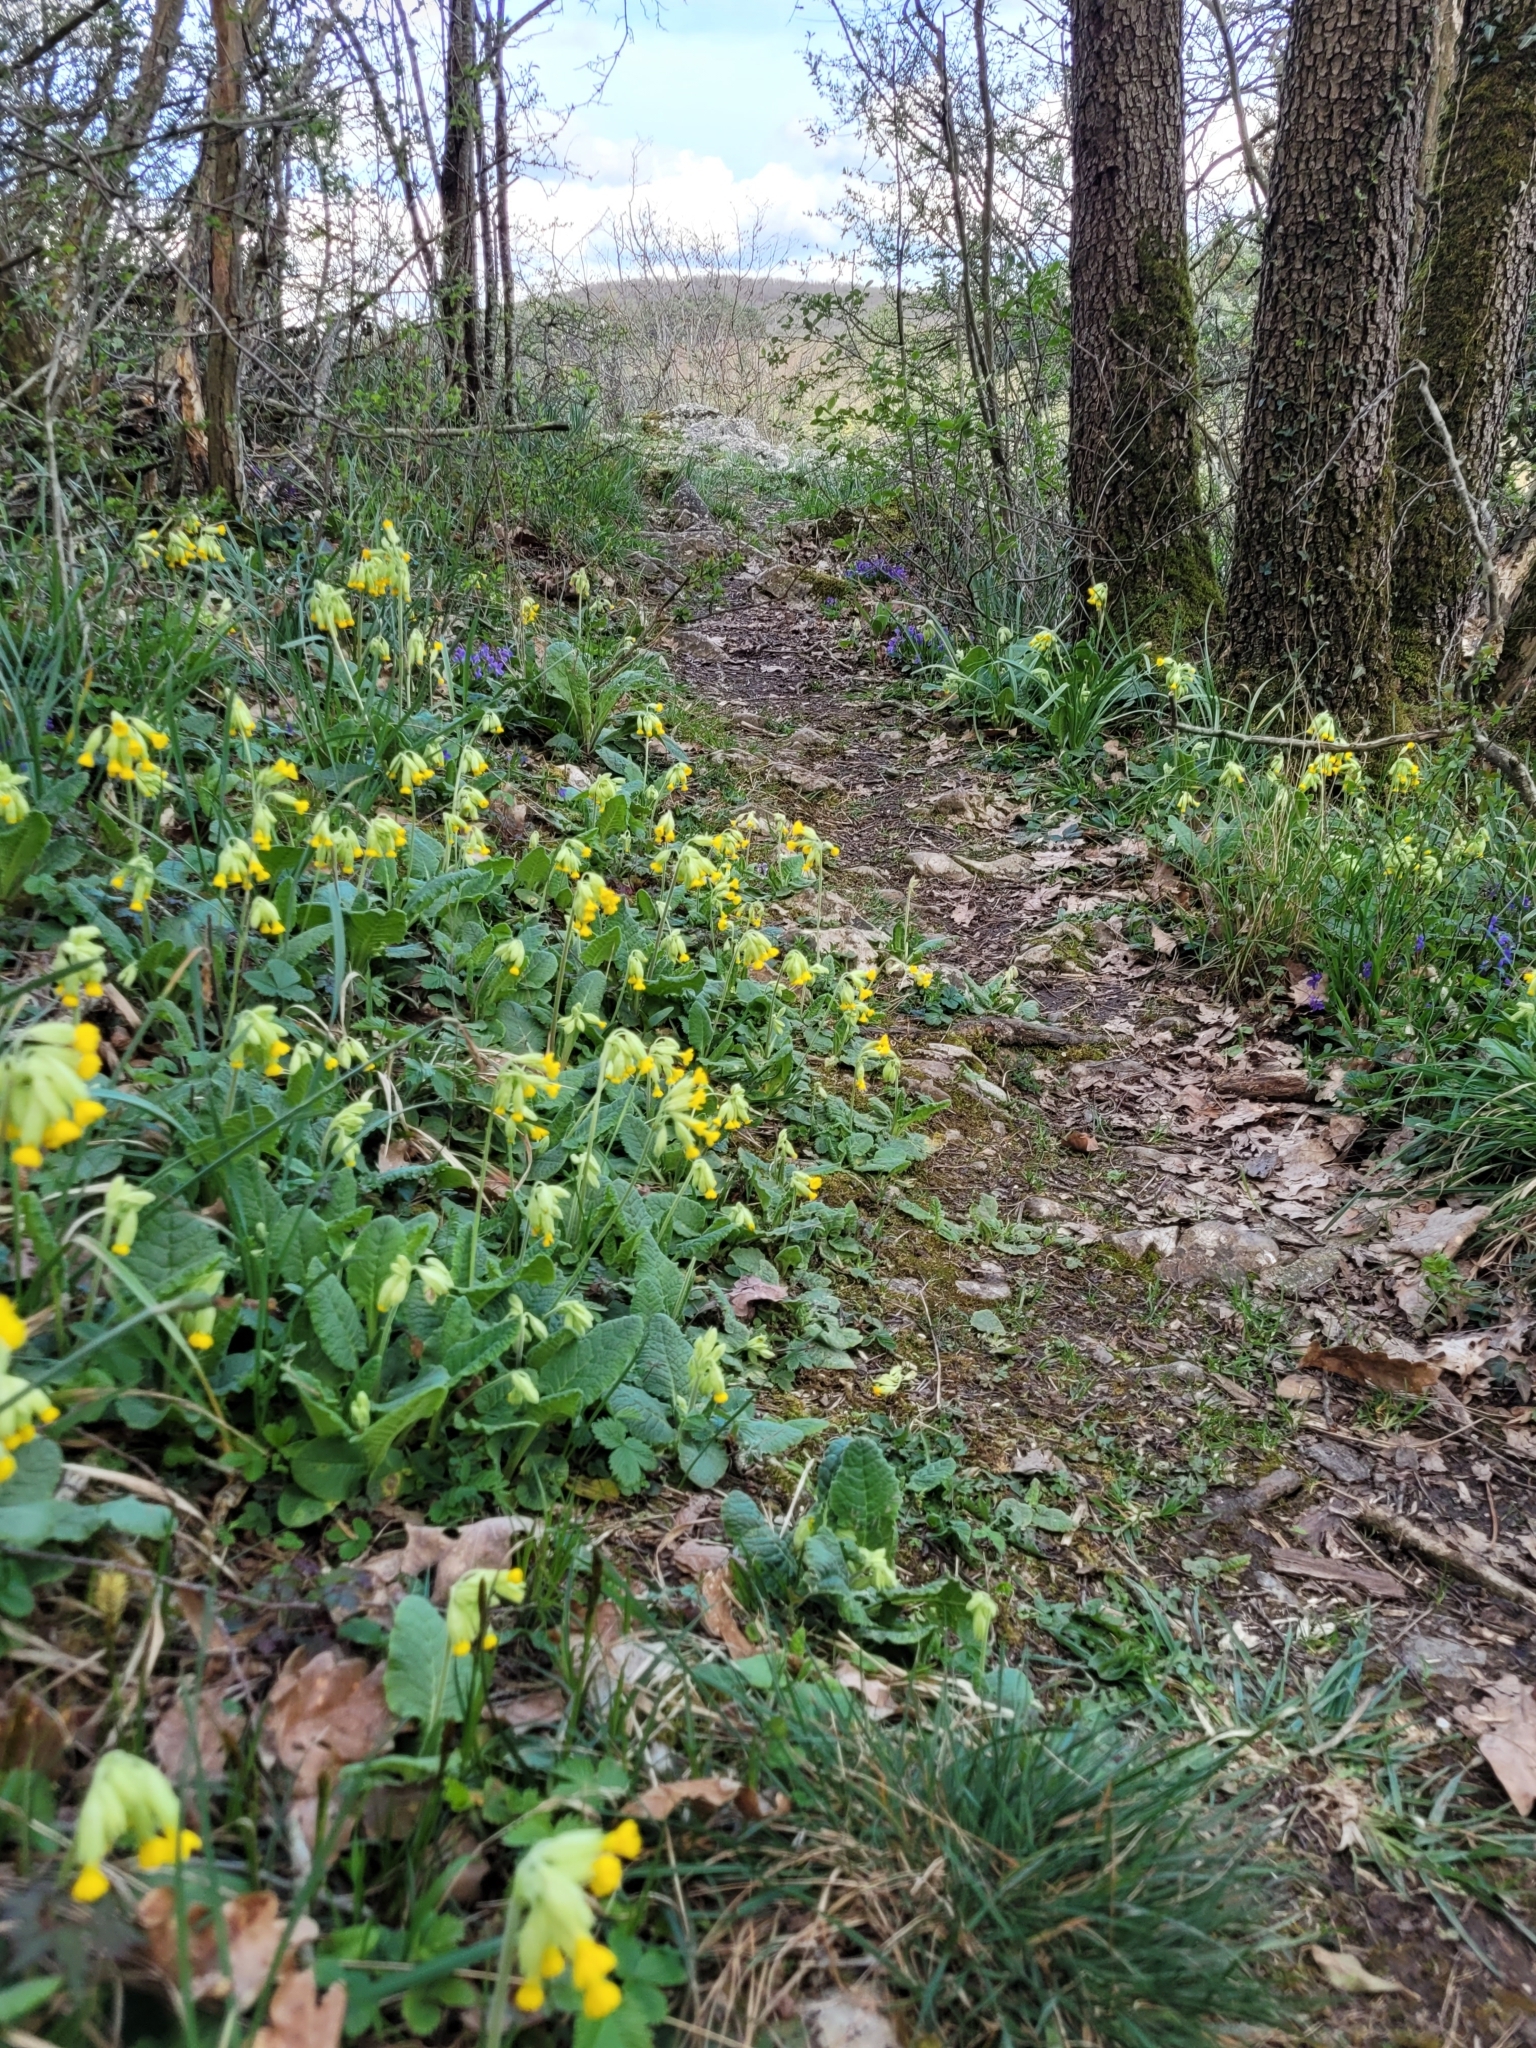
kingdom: Plantae
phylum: Tracheophyta
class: Magnoliopsida
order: Ericales
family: Primulaceae
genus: Primula
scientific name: Primula veris
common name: Cowslip
